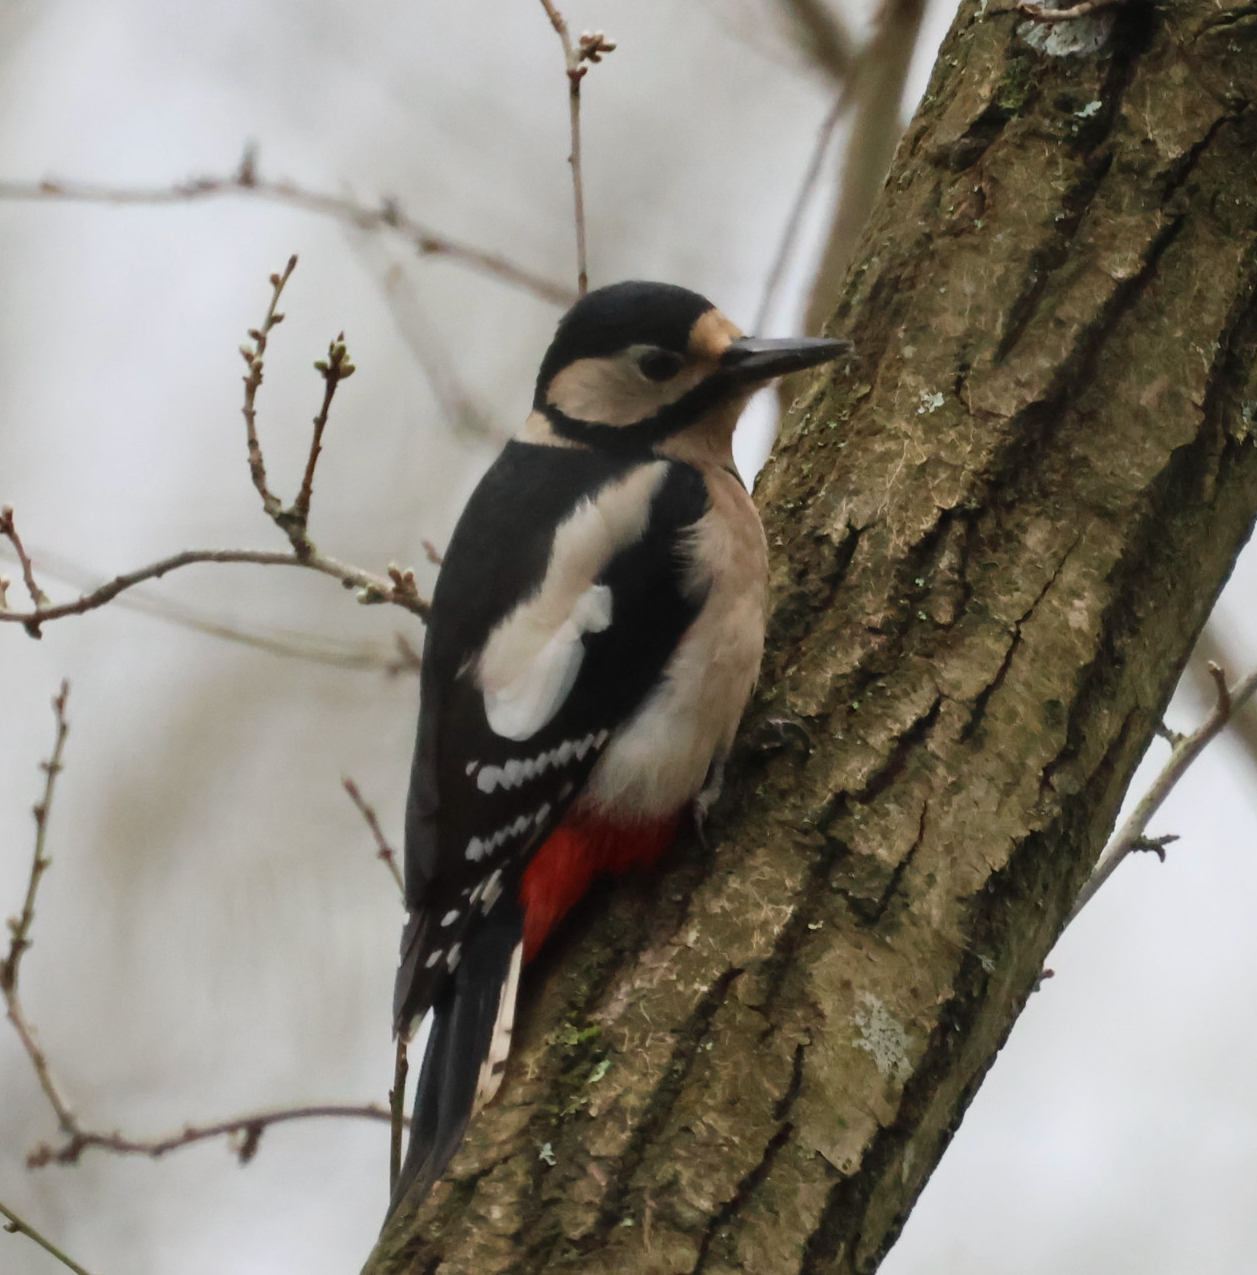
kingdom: Animalia
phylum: Chordata
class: Aves
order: Piciformes
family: Picidae
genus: Dendrocopos
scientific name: Dendrocopos major
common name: Great spotted woodpecker
